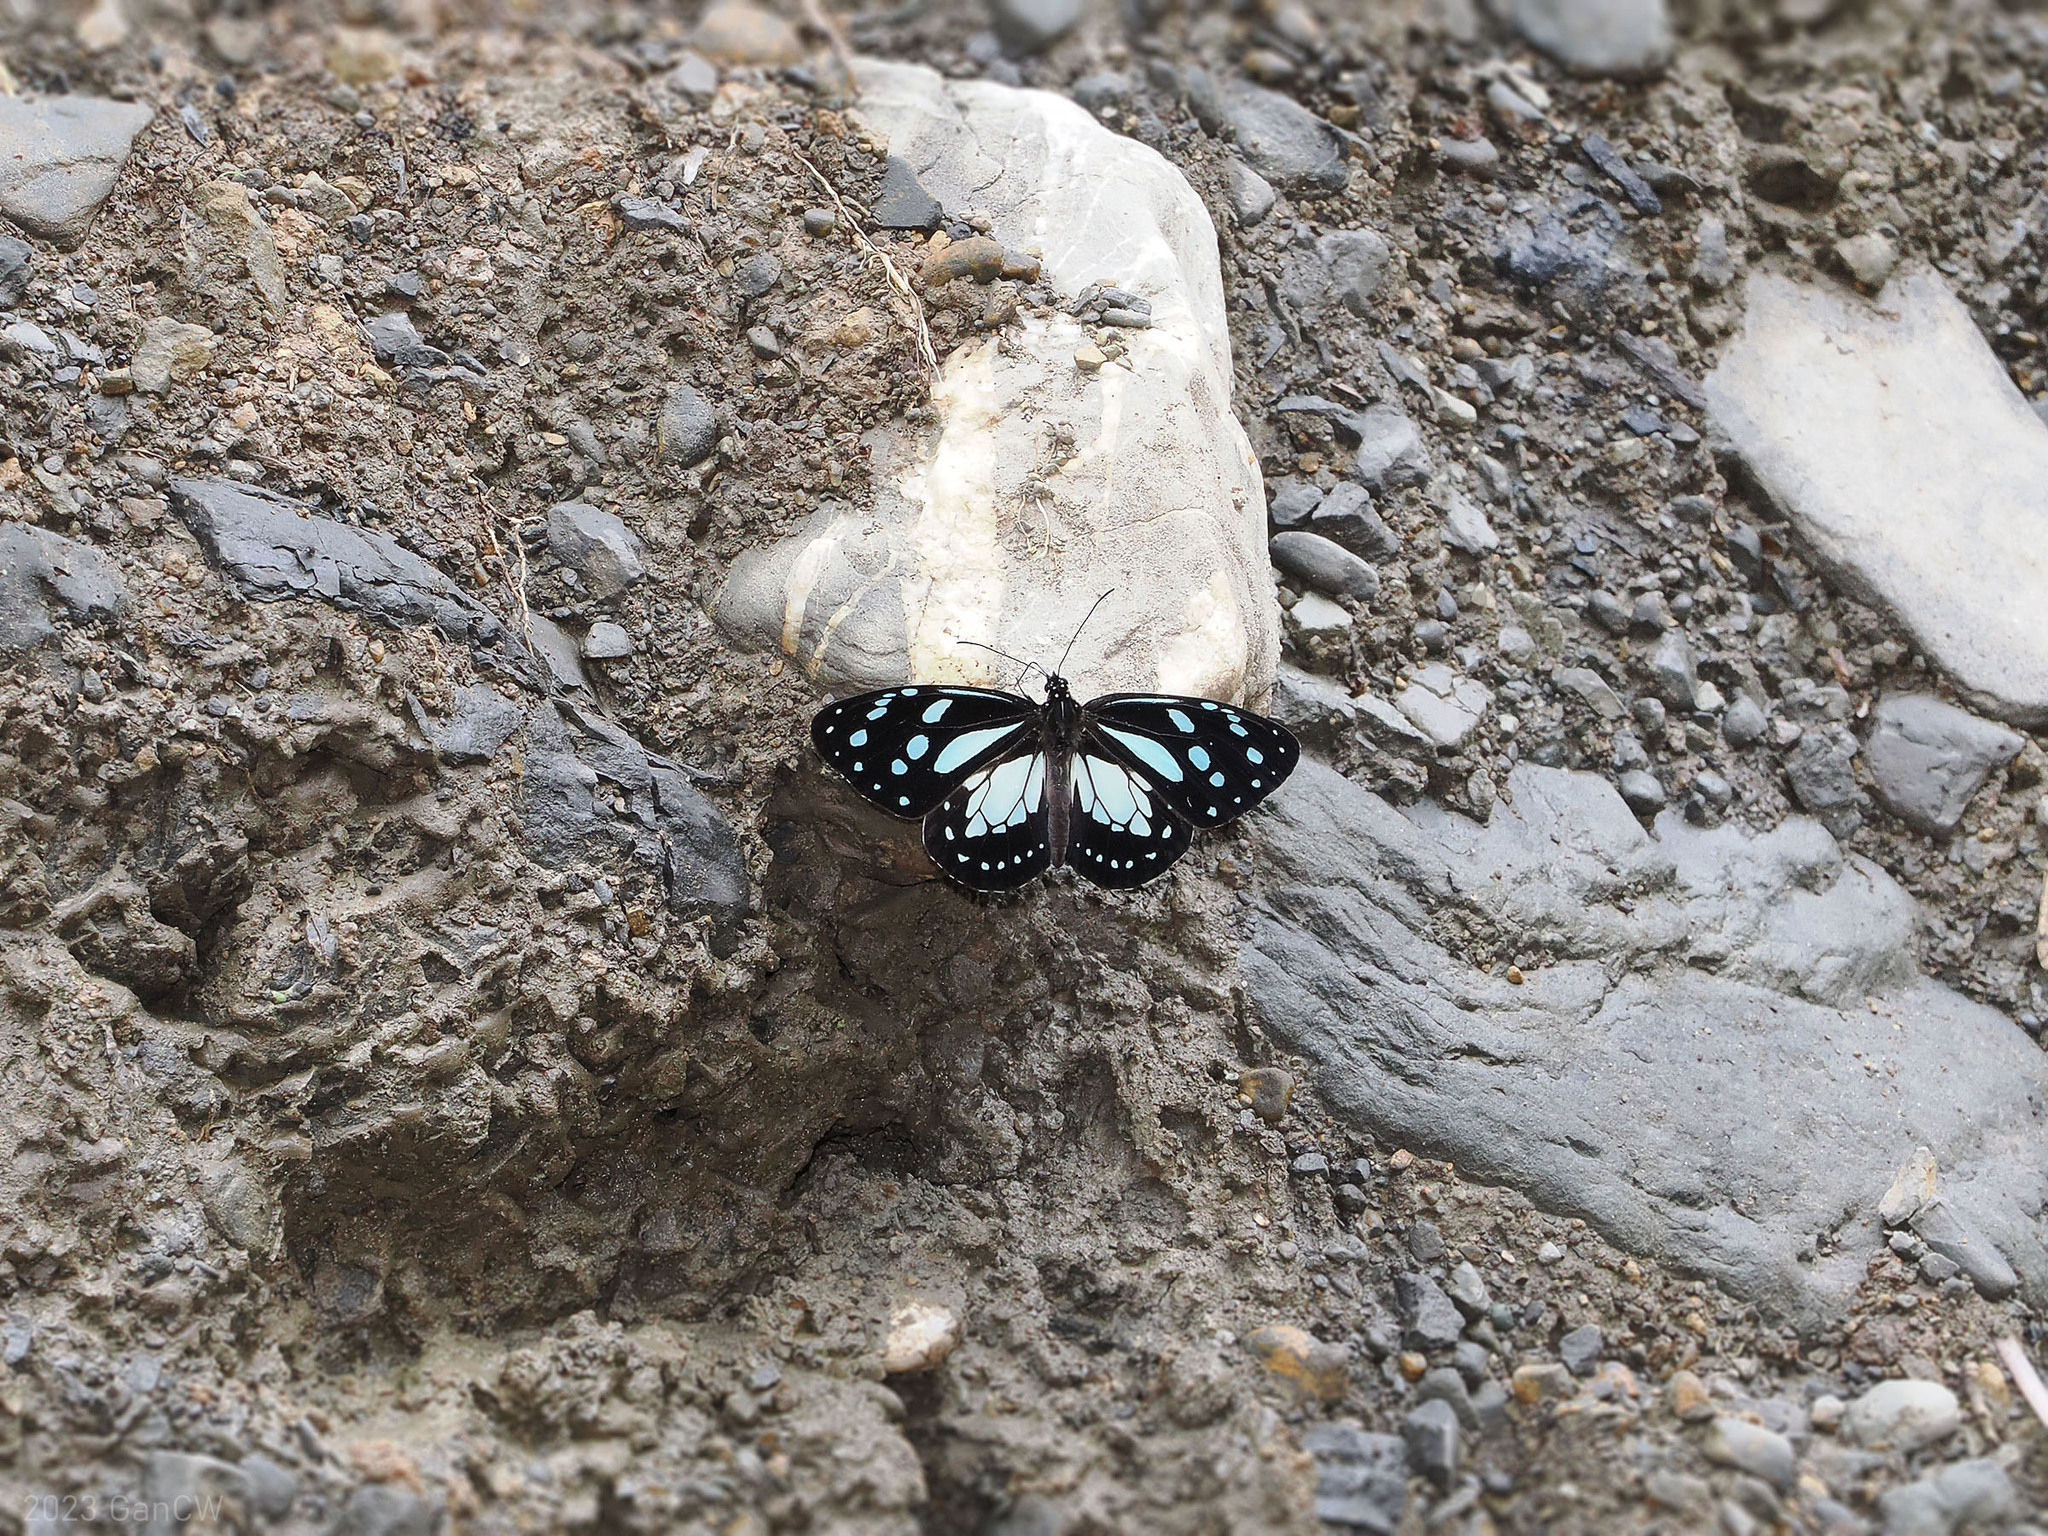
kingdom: Animalia
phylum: Arthropoda
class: Insecta
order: Lepidoptera
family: Nymphalidae
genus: Miriamica
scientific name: Miriamica weiskei
